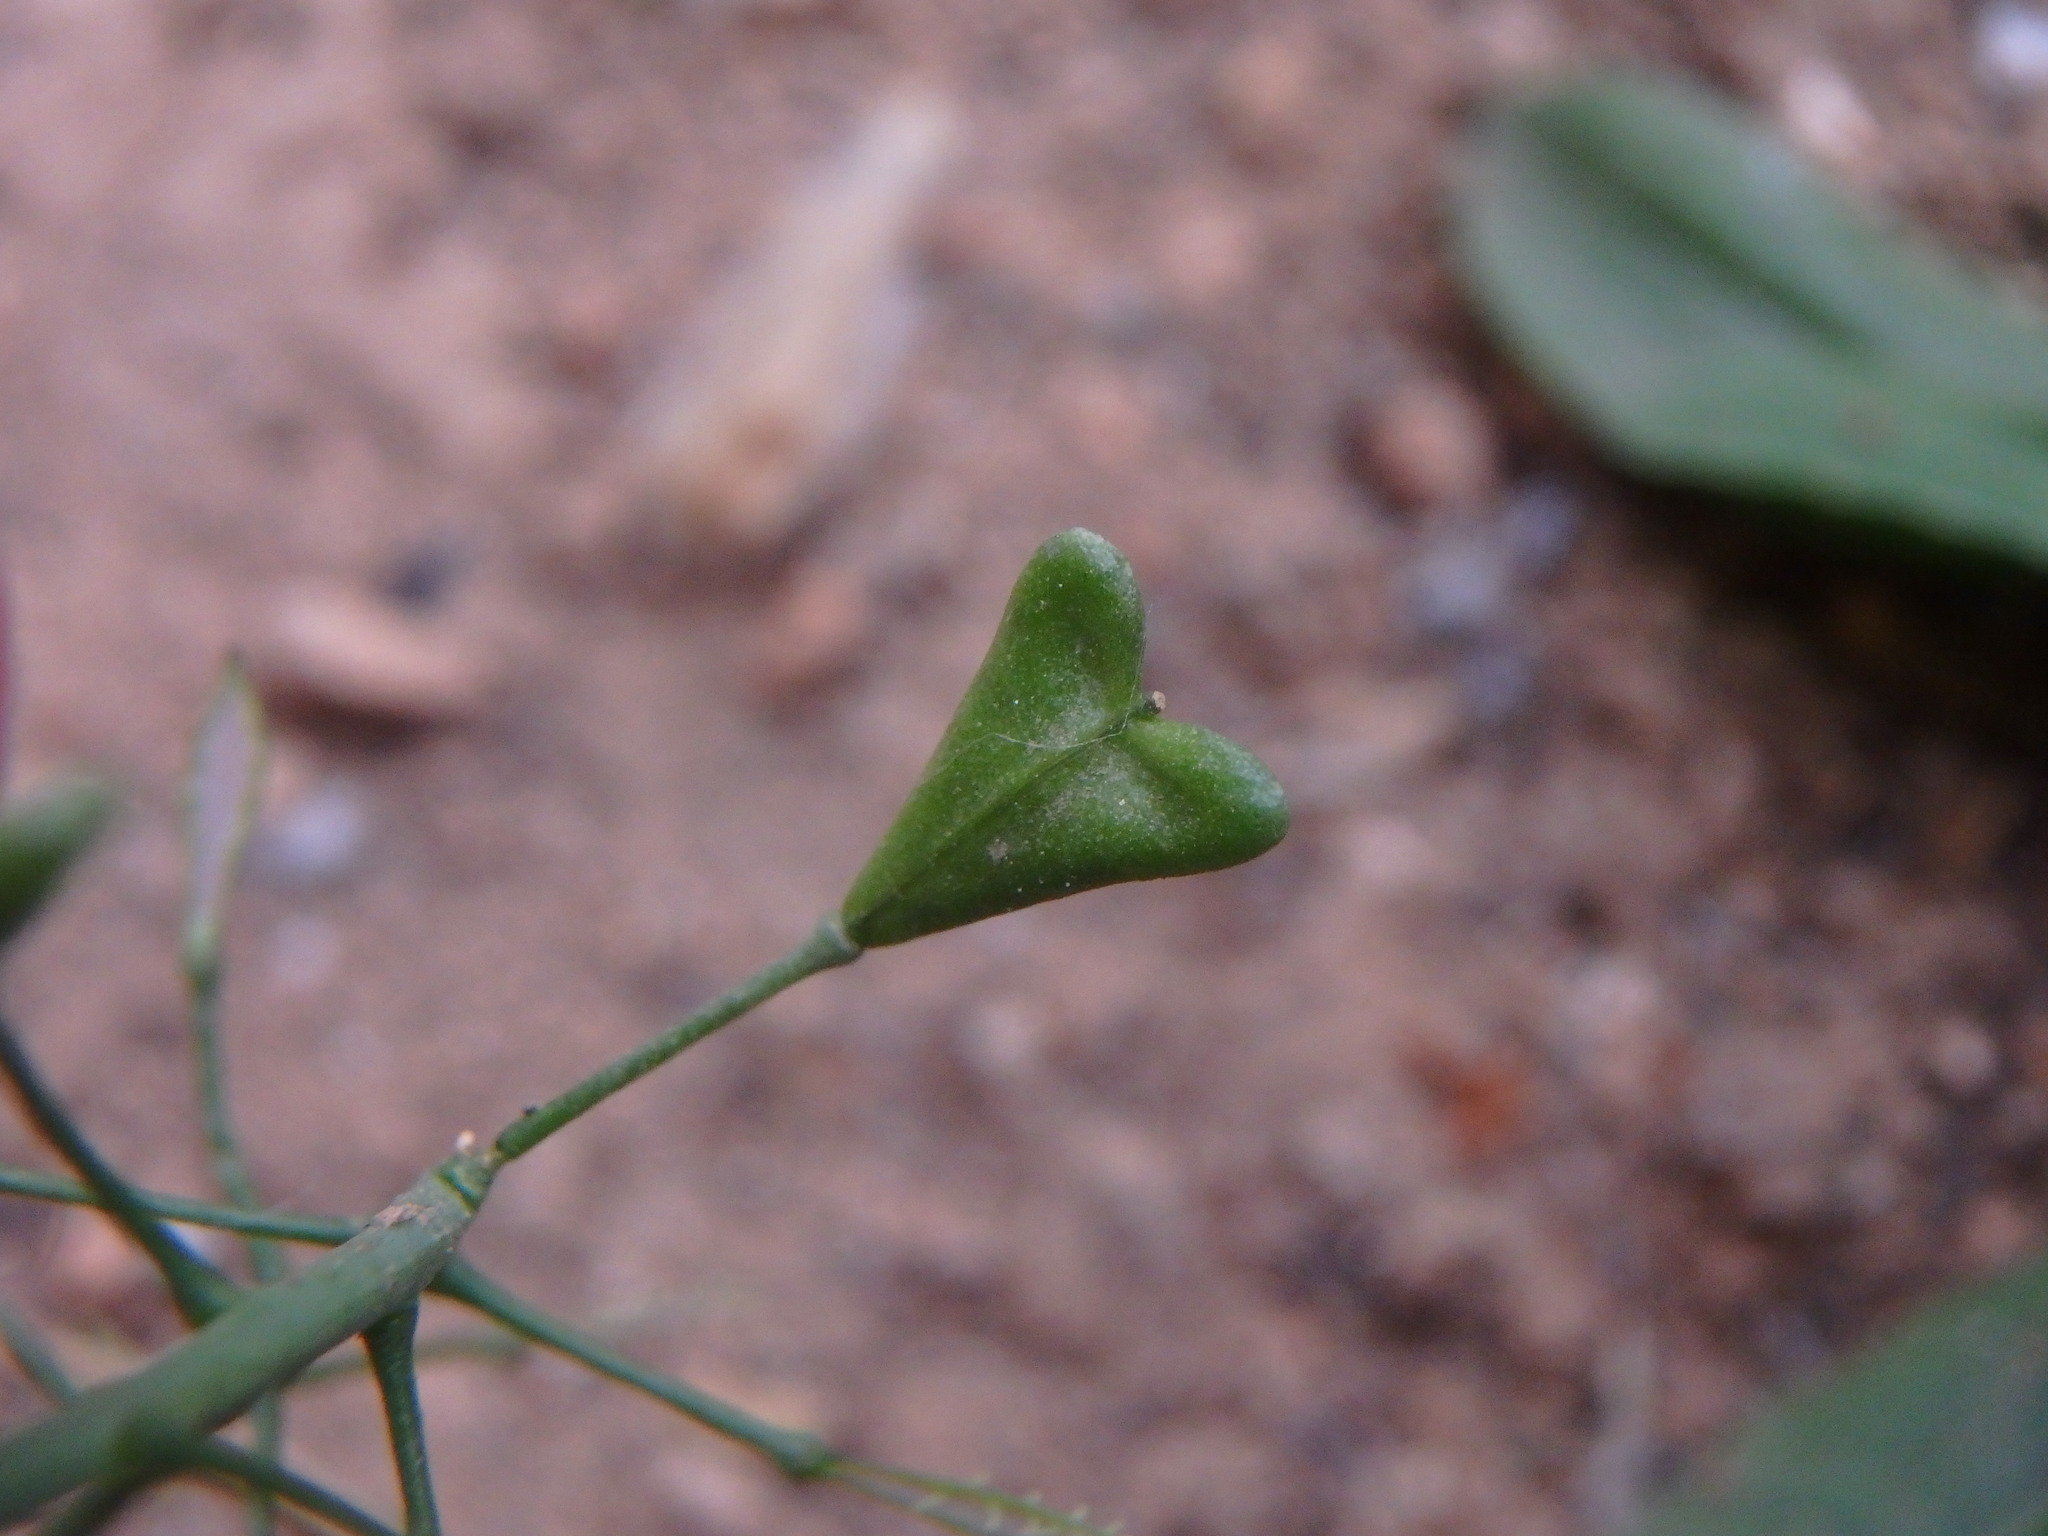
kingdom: Plantae
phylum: Tracheophyta
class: Magnoliopsida
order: Brassicales
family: Brassicaceae
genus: Capsella
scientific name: Capsella bursa-pastoris
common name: Shepherd's purse
